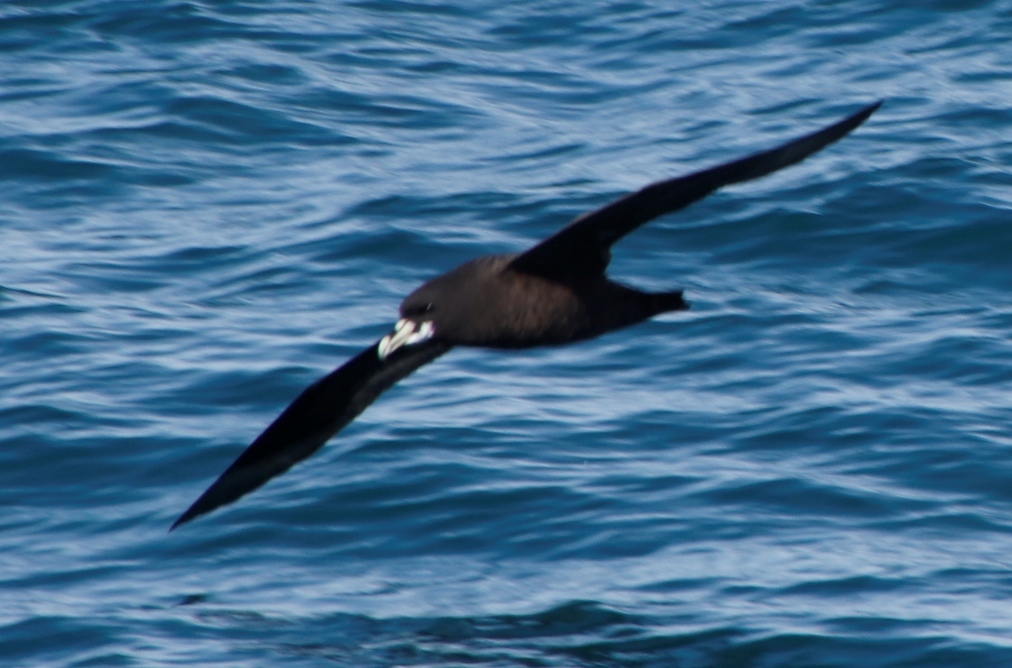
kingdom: Animalia
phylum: Chordata
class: Aves
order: Procellariiformes
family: Procellariidae
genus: Procellaria
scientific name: Procellaria aequinoctialis
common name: White-chinned petrel
